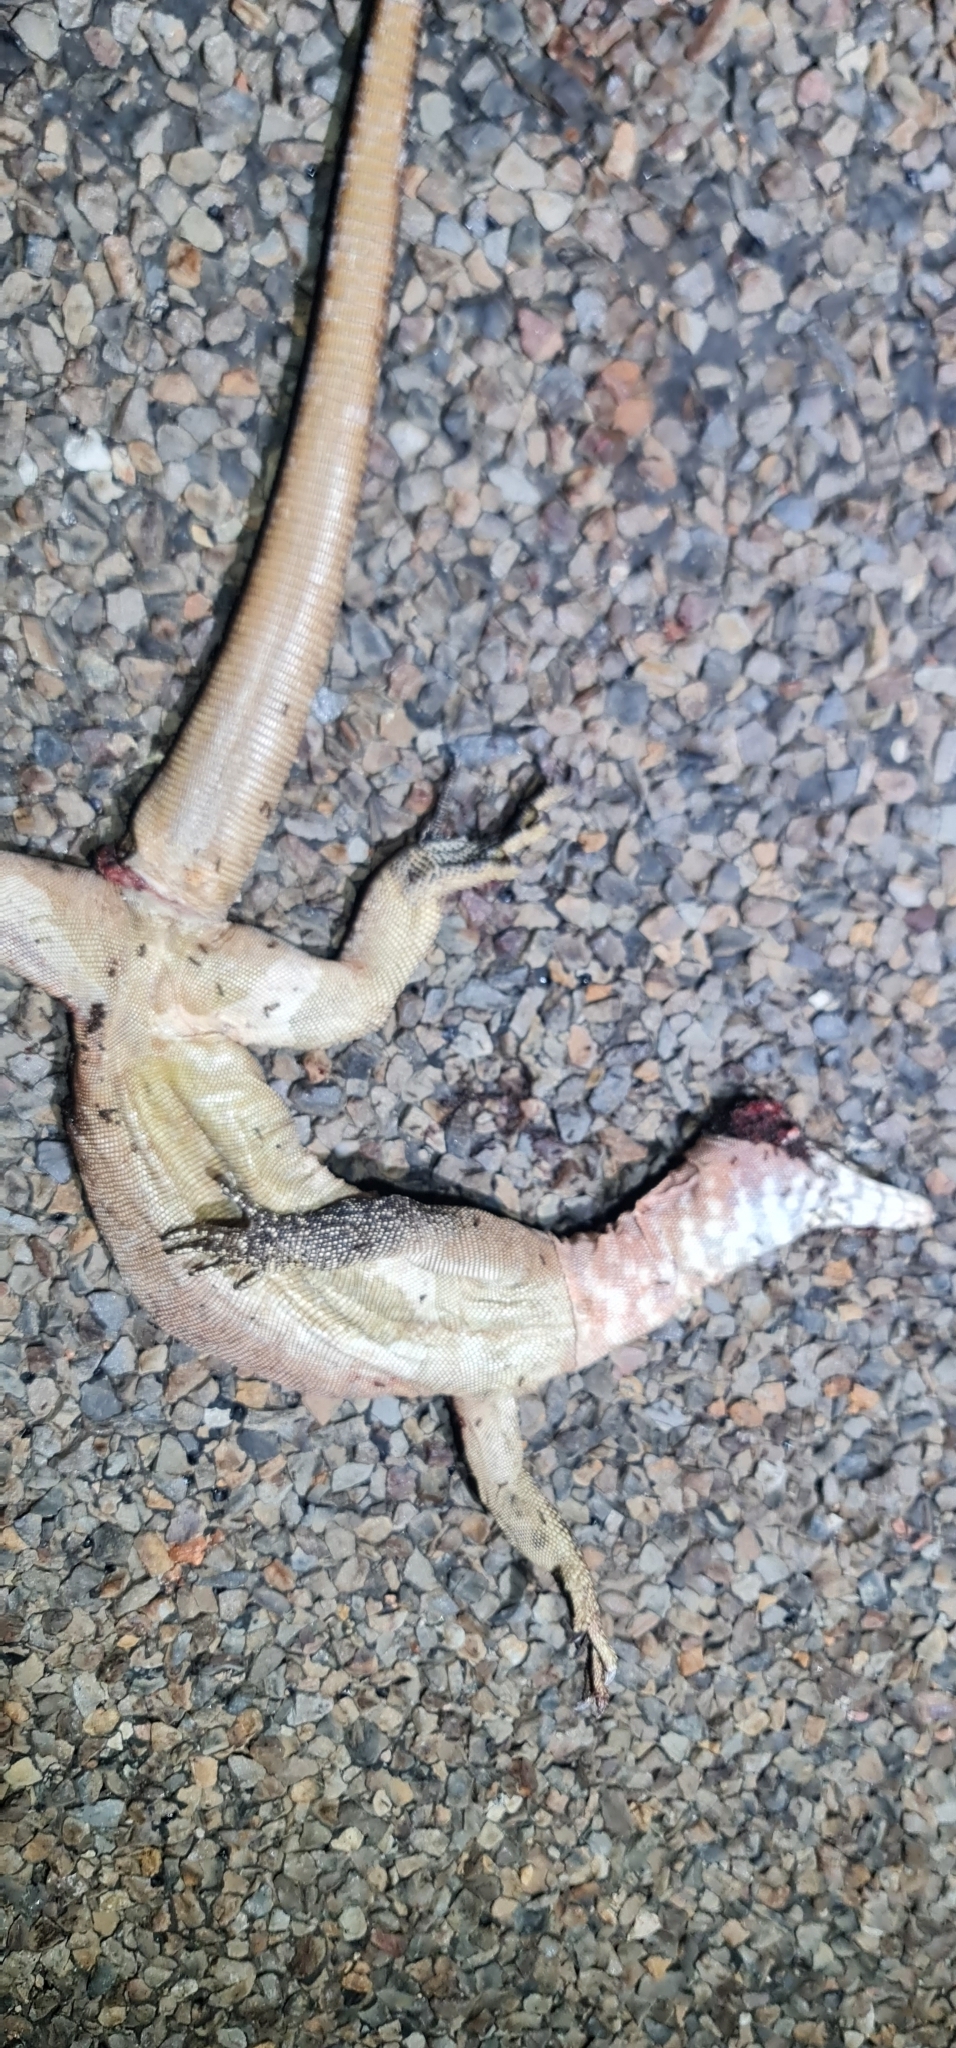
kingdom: Animalia
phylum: Chordata
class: Squamata
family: Varanidae
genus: Varanus
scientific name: Varanus glebopalma
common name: Black-palmed rock monitor
